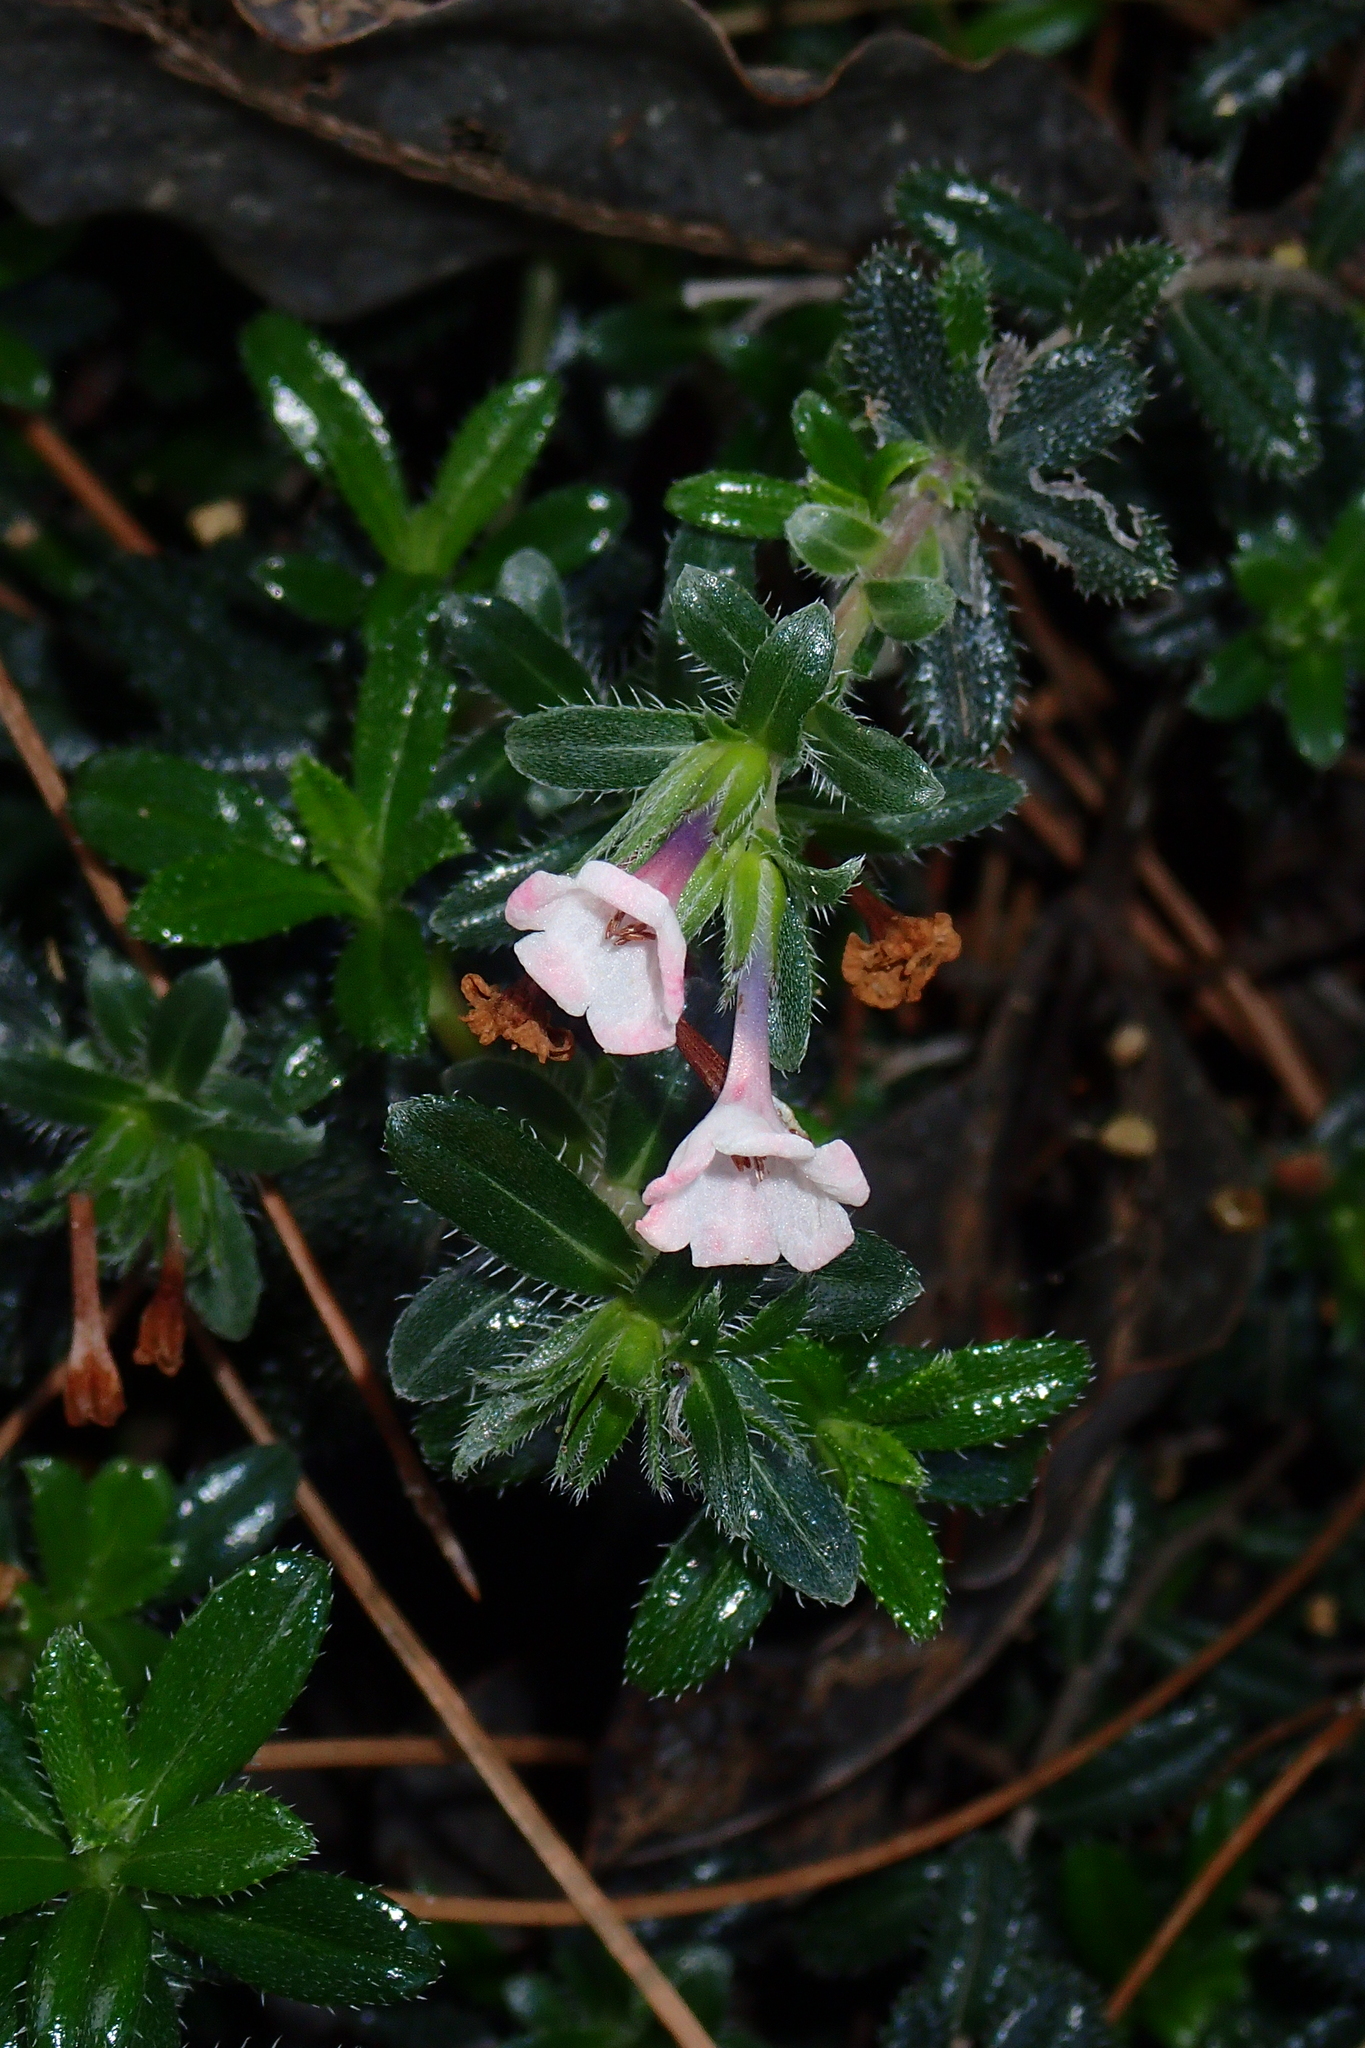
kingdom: Plantae
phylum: Tracheophyta
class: Magnoliopsida
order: Boraginales
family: Boraginaceae
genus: Lithodora
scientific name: Lithodora hispidula
